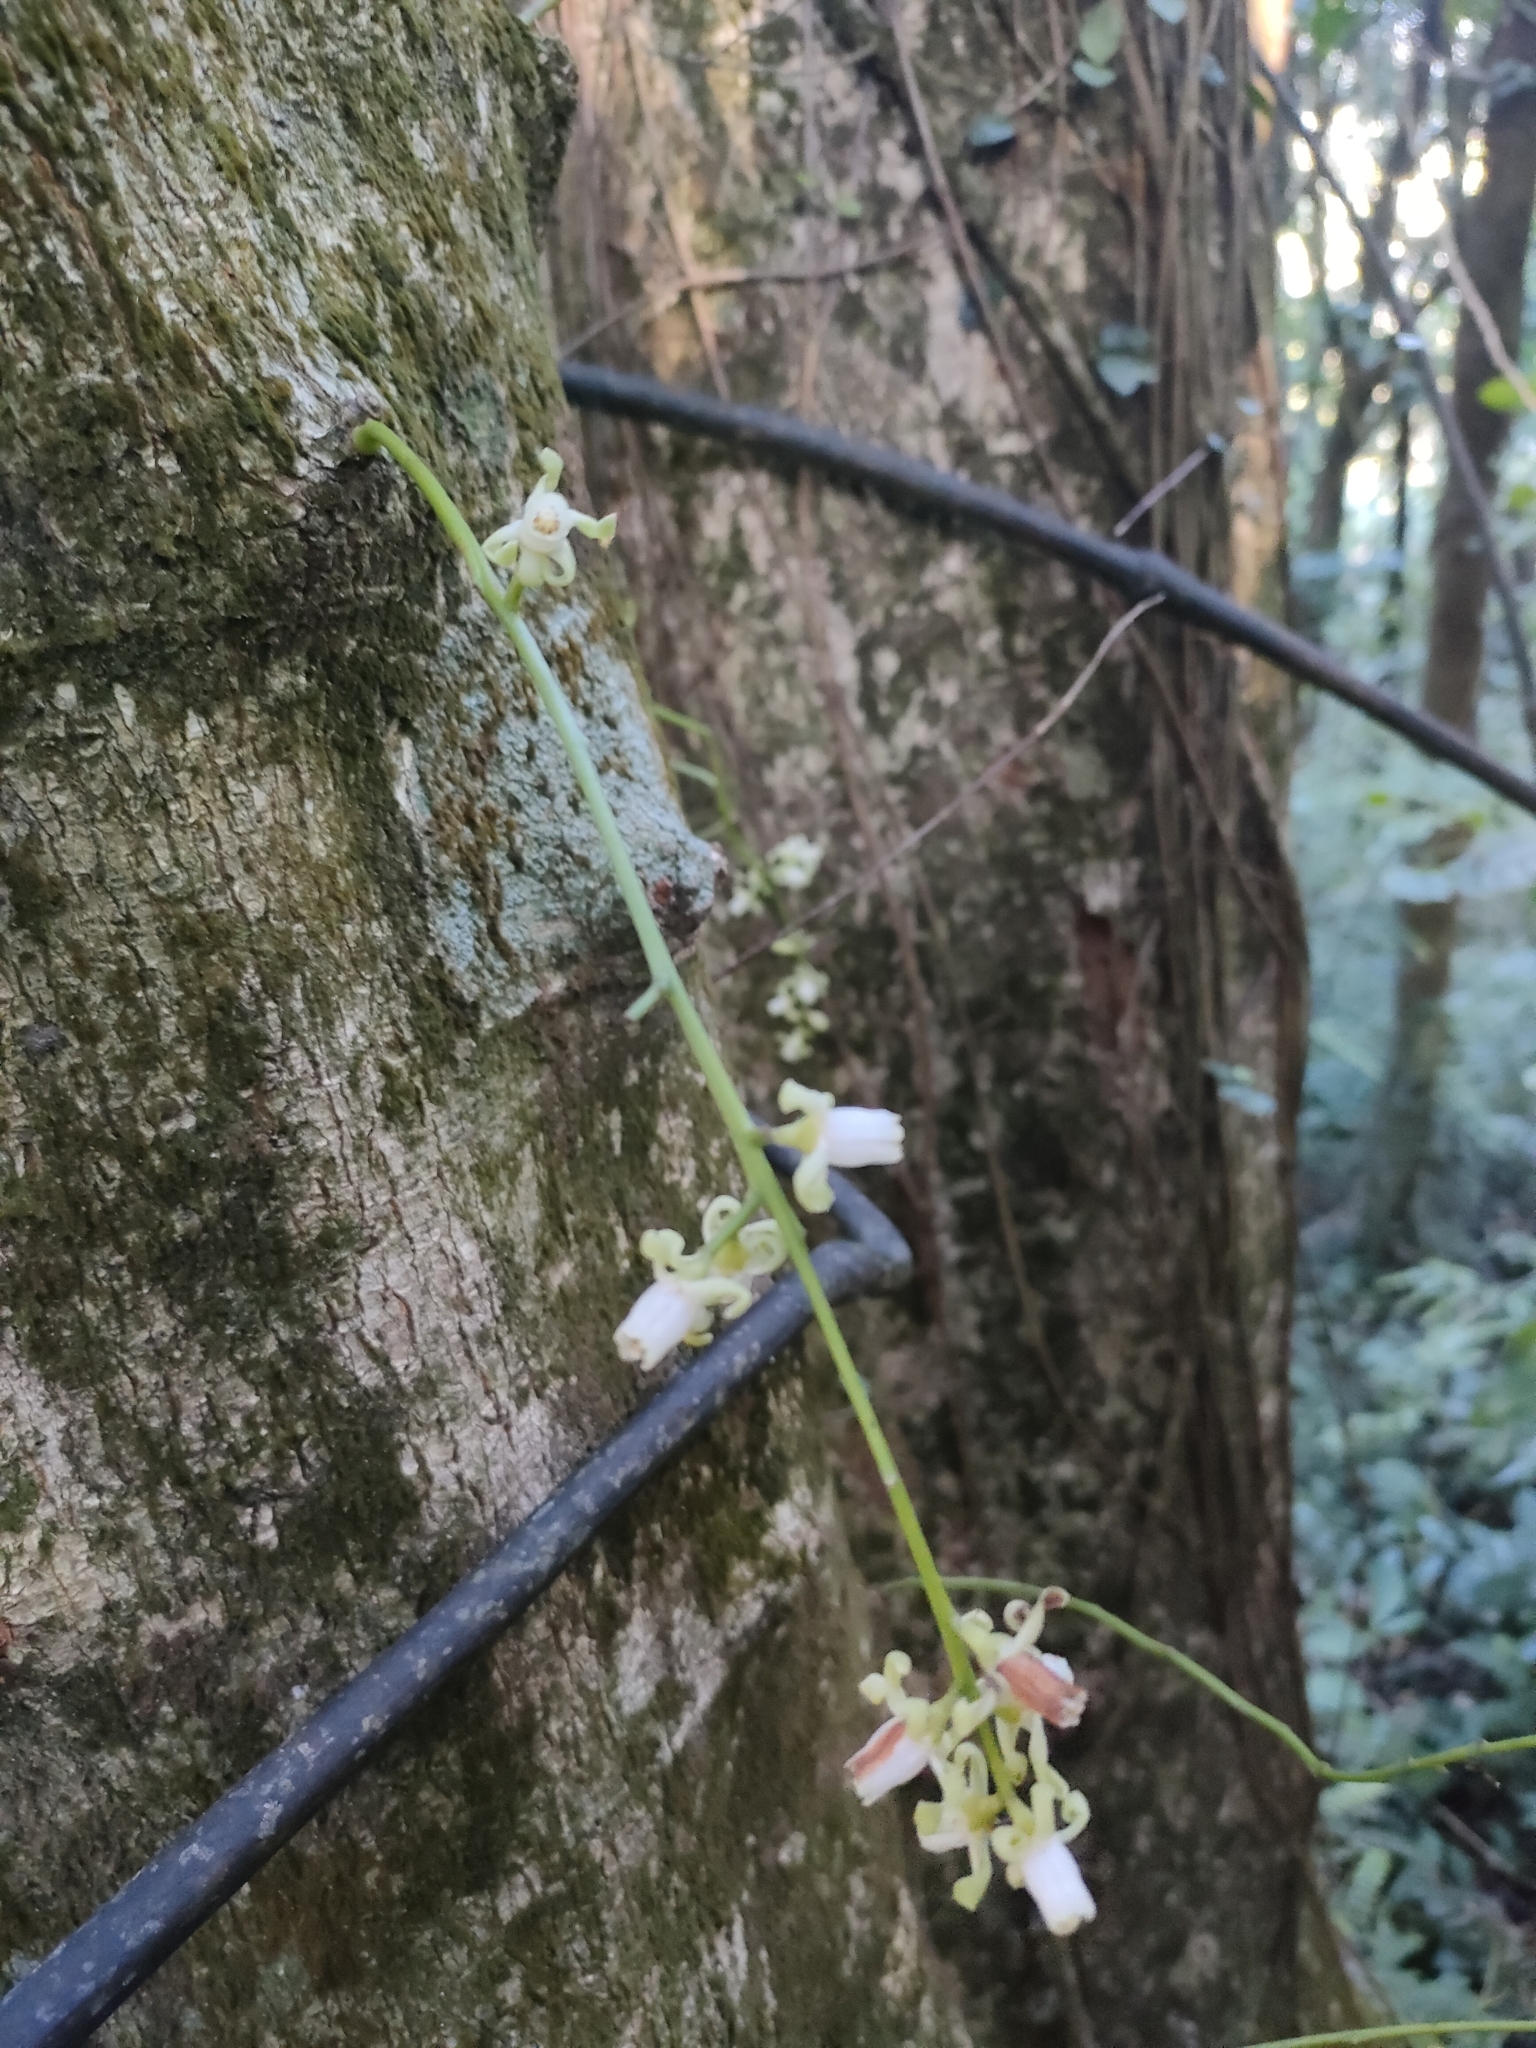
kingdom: Plantae
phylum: Tracheophyta
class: Magnoliopsida
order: Sapindales
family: Meliaceae
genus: Didymocheton
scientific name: Didymocheton spectabilis
